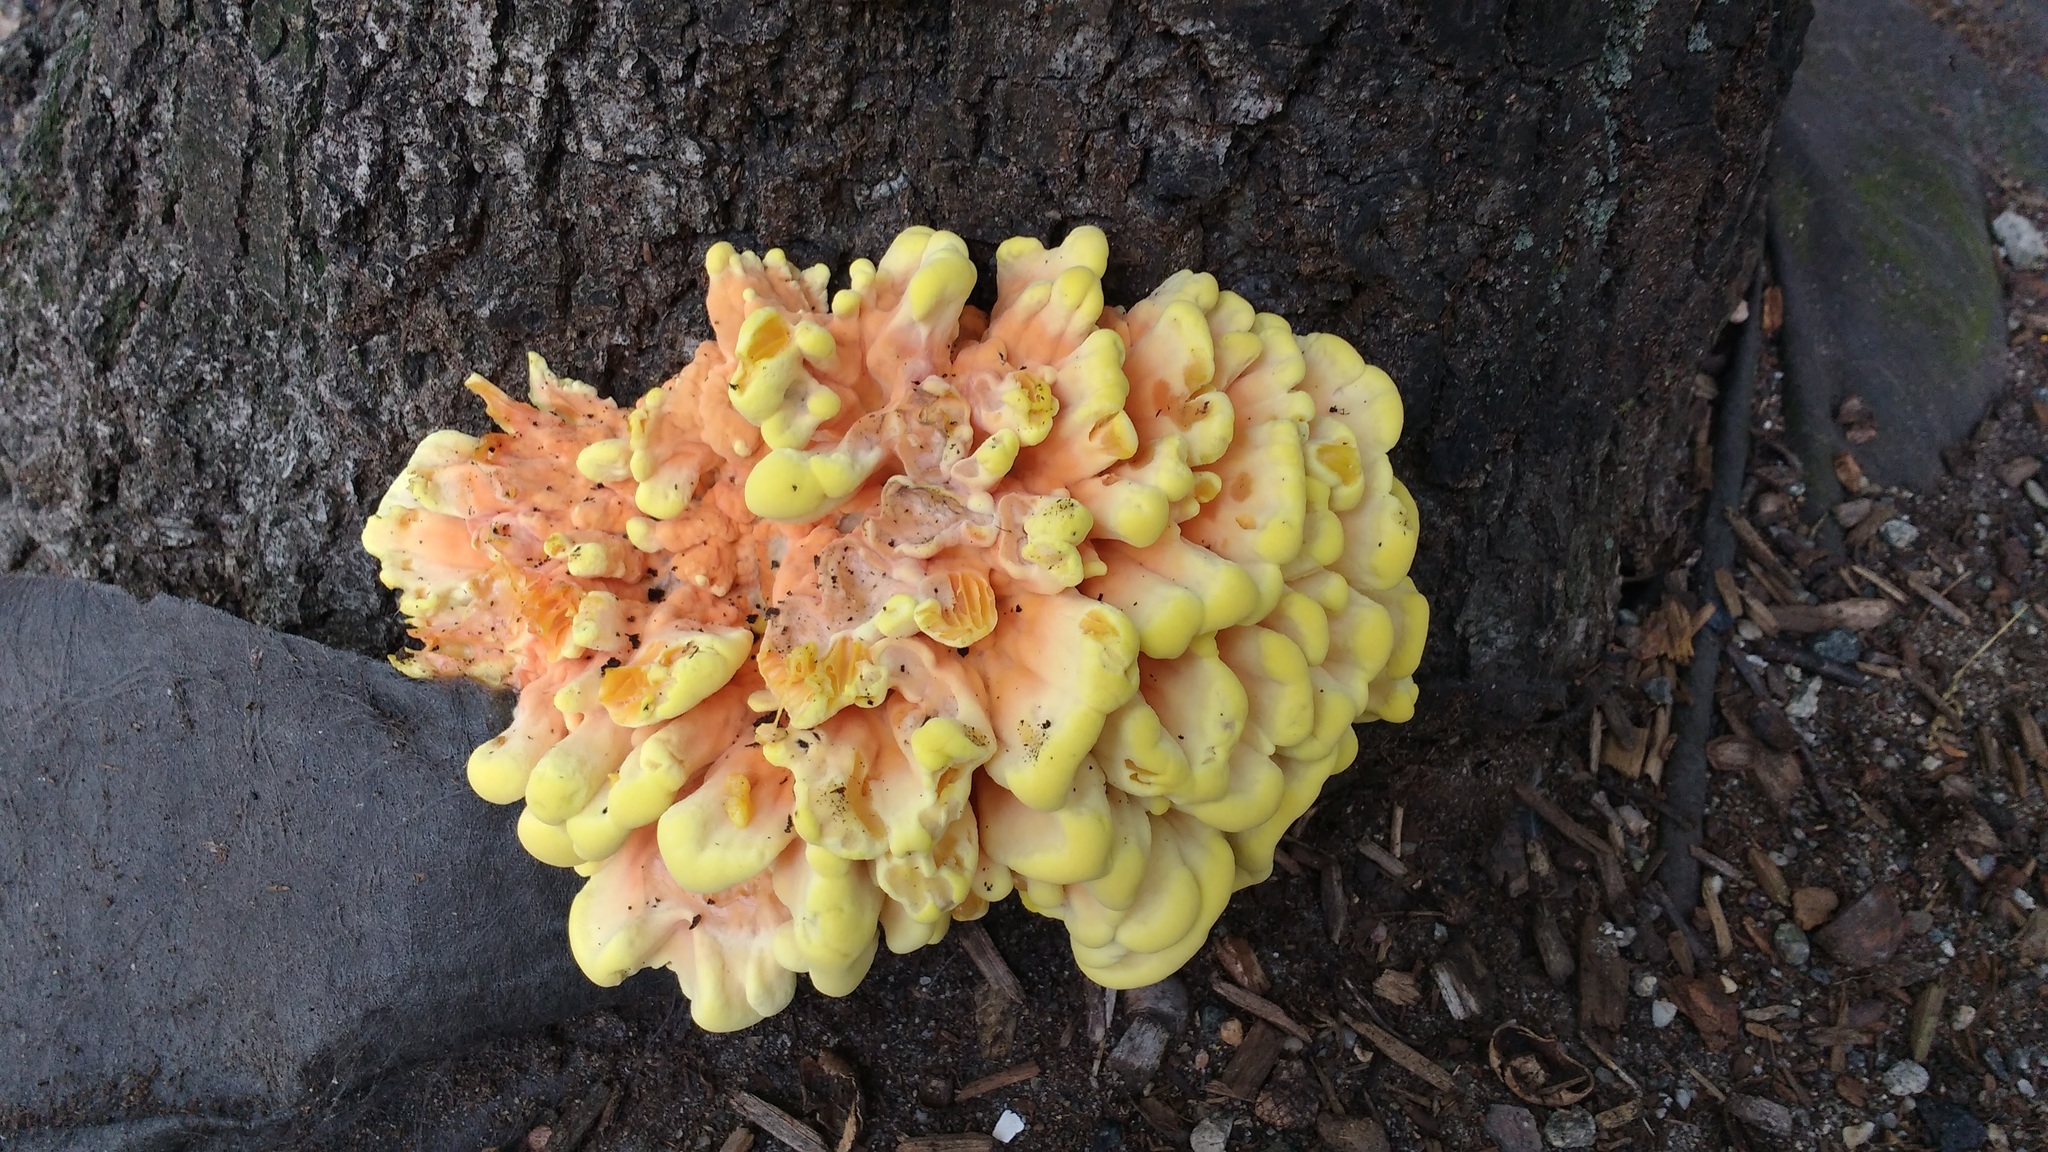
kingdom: Fungi
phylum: Basidiomycota
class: Agaricomycetes
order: Polyporales
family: Laetiporaceae
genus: Laetiporus
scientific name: Laetiporus sulphureus
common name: Chicken of the woods
